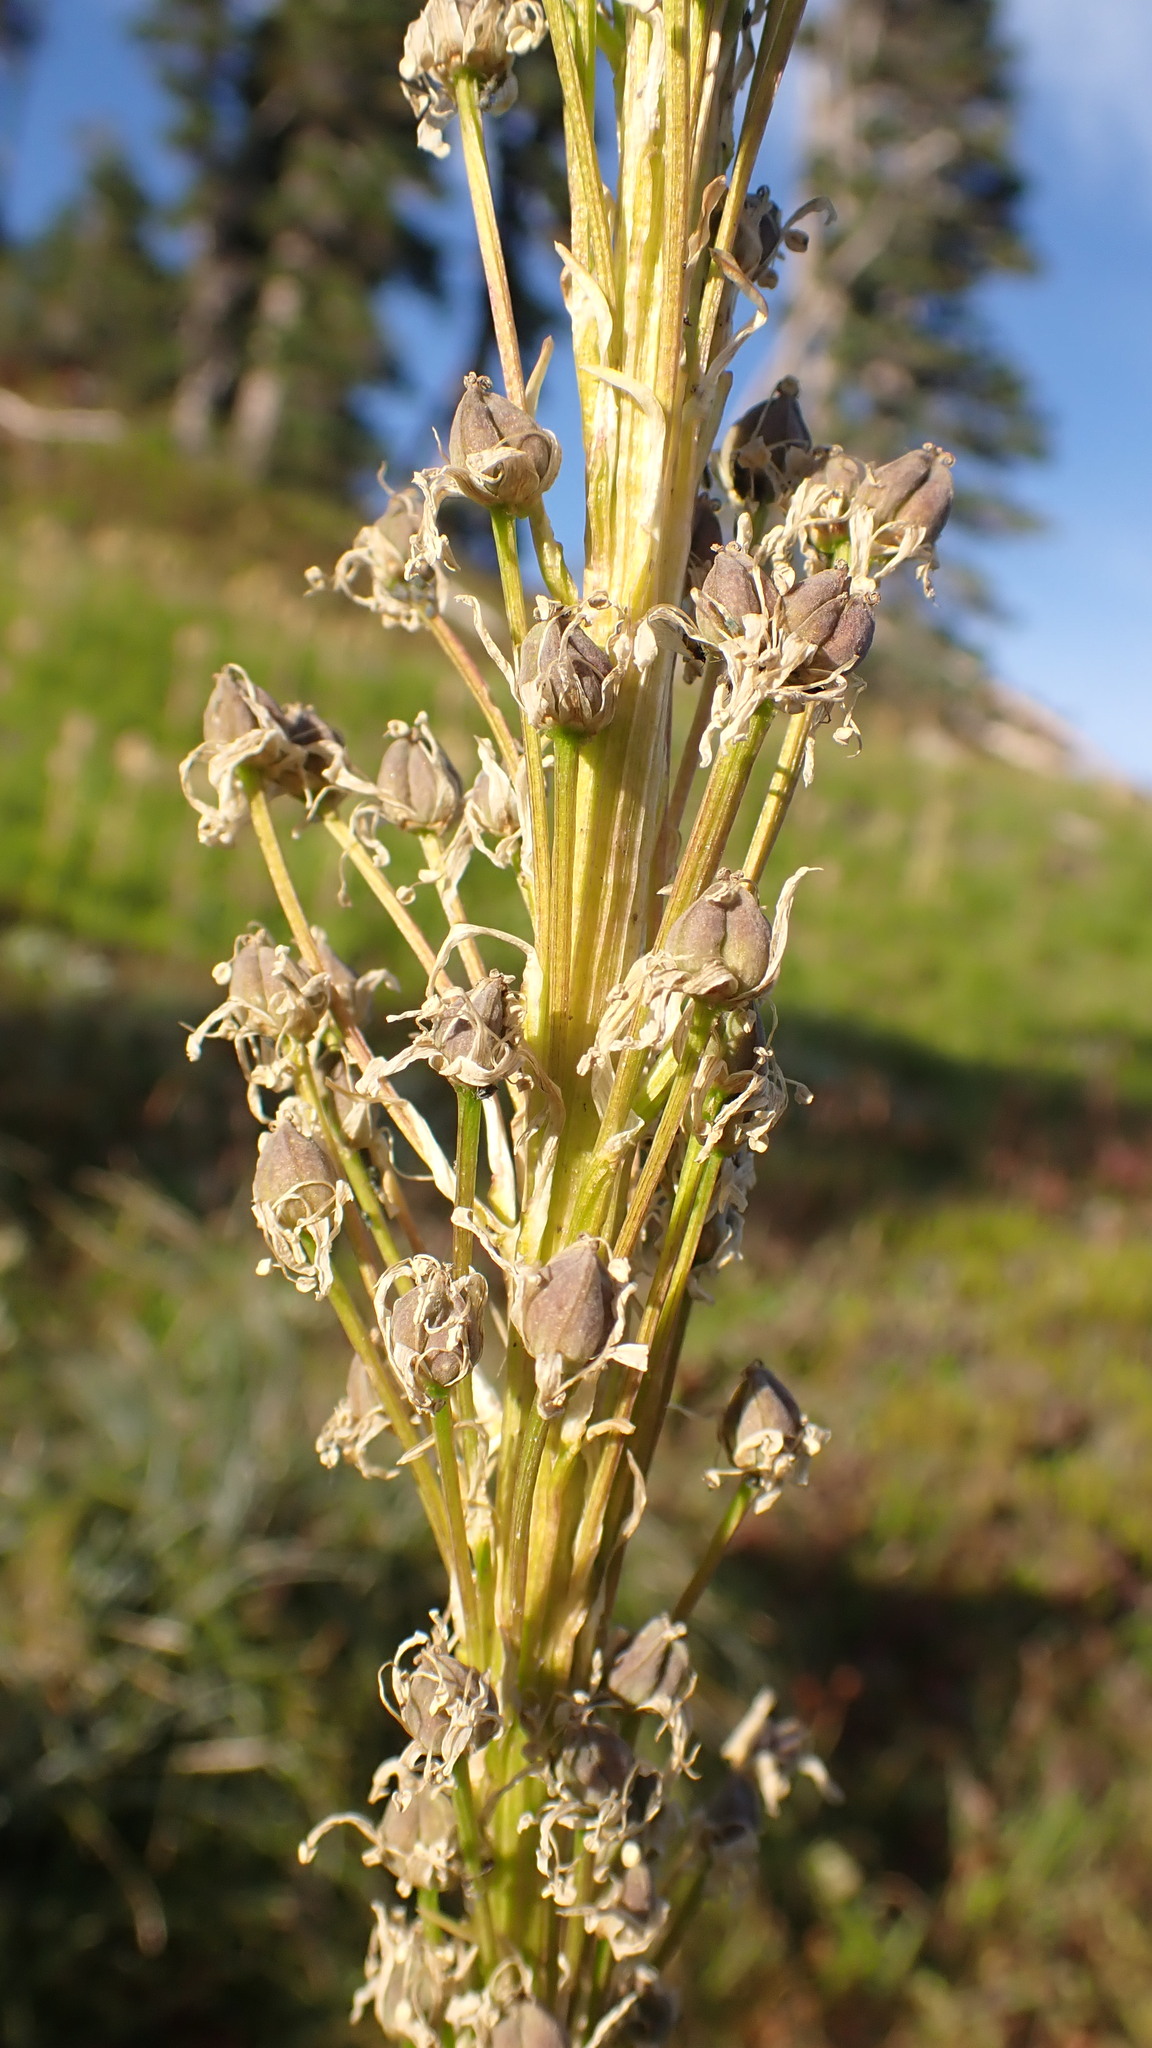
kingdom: Plantae
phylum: Tracheophyta
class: Liliopsida
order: Liliales
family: Melanthiaceae
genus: Xerophyllum
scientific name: Xerophyllum tenax
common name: Bear-grass
